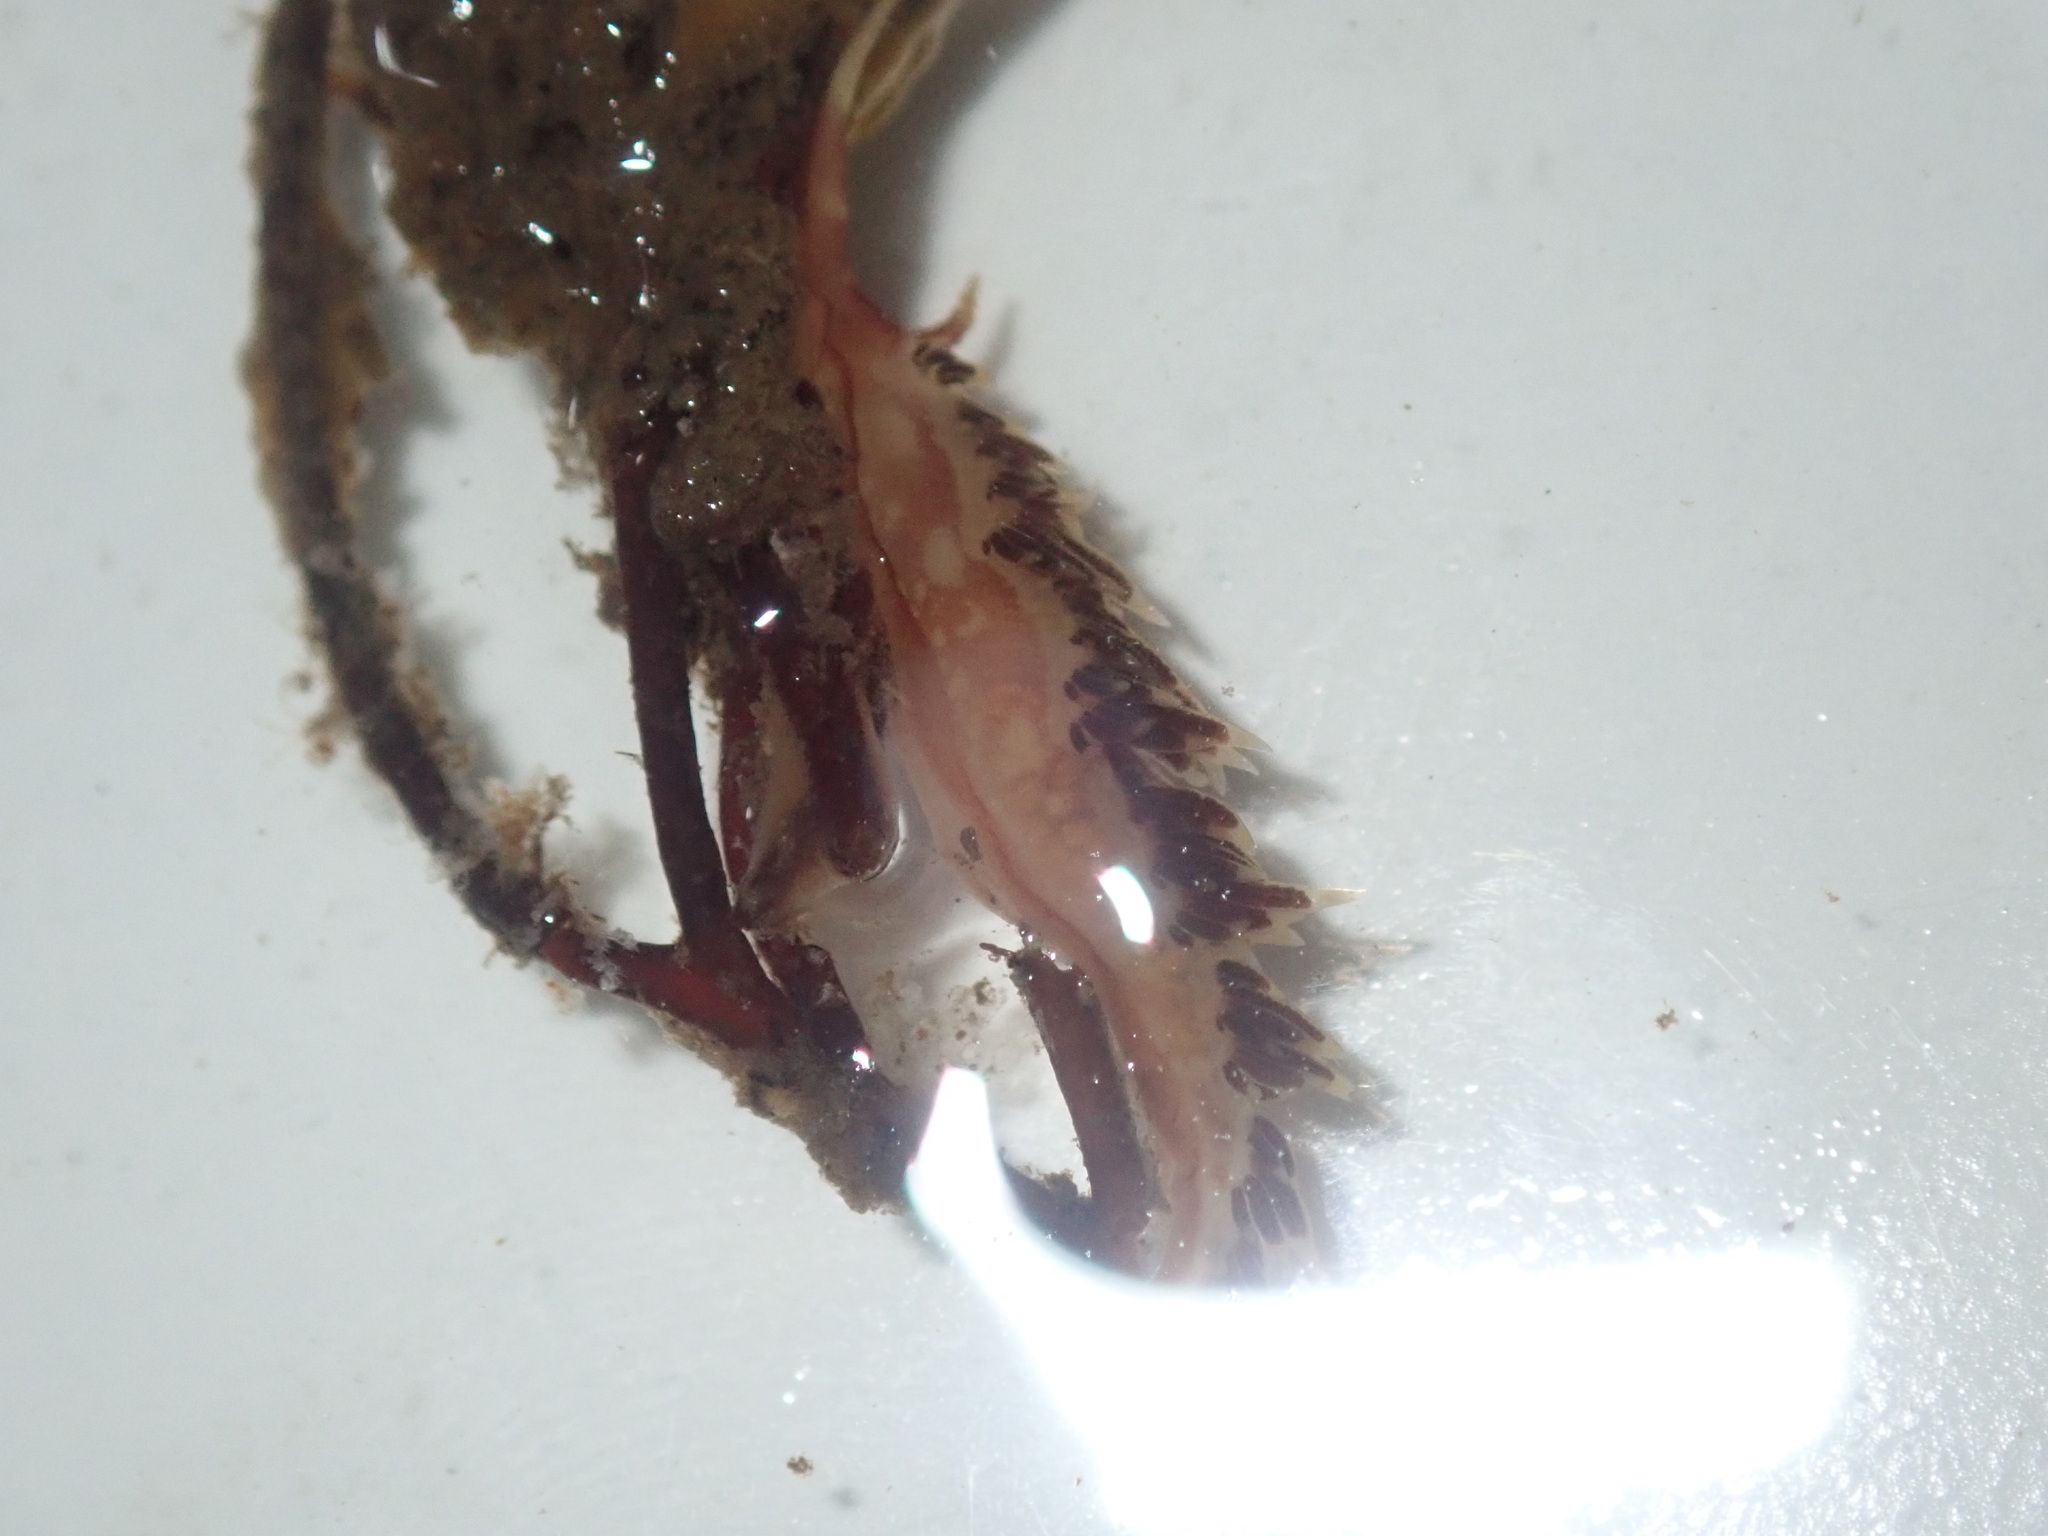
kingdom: Animalia
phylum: Mollusca
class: Gastropoda
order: Nudibranchia
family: Facelinidae
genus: Facelina
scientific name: Facelina newcombi
